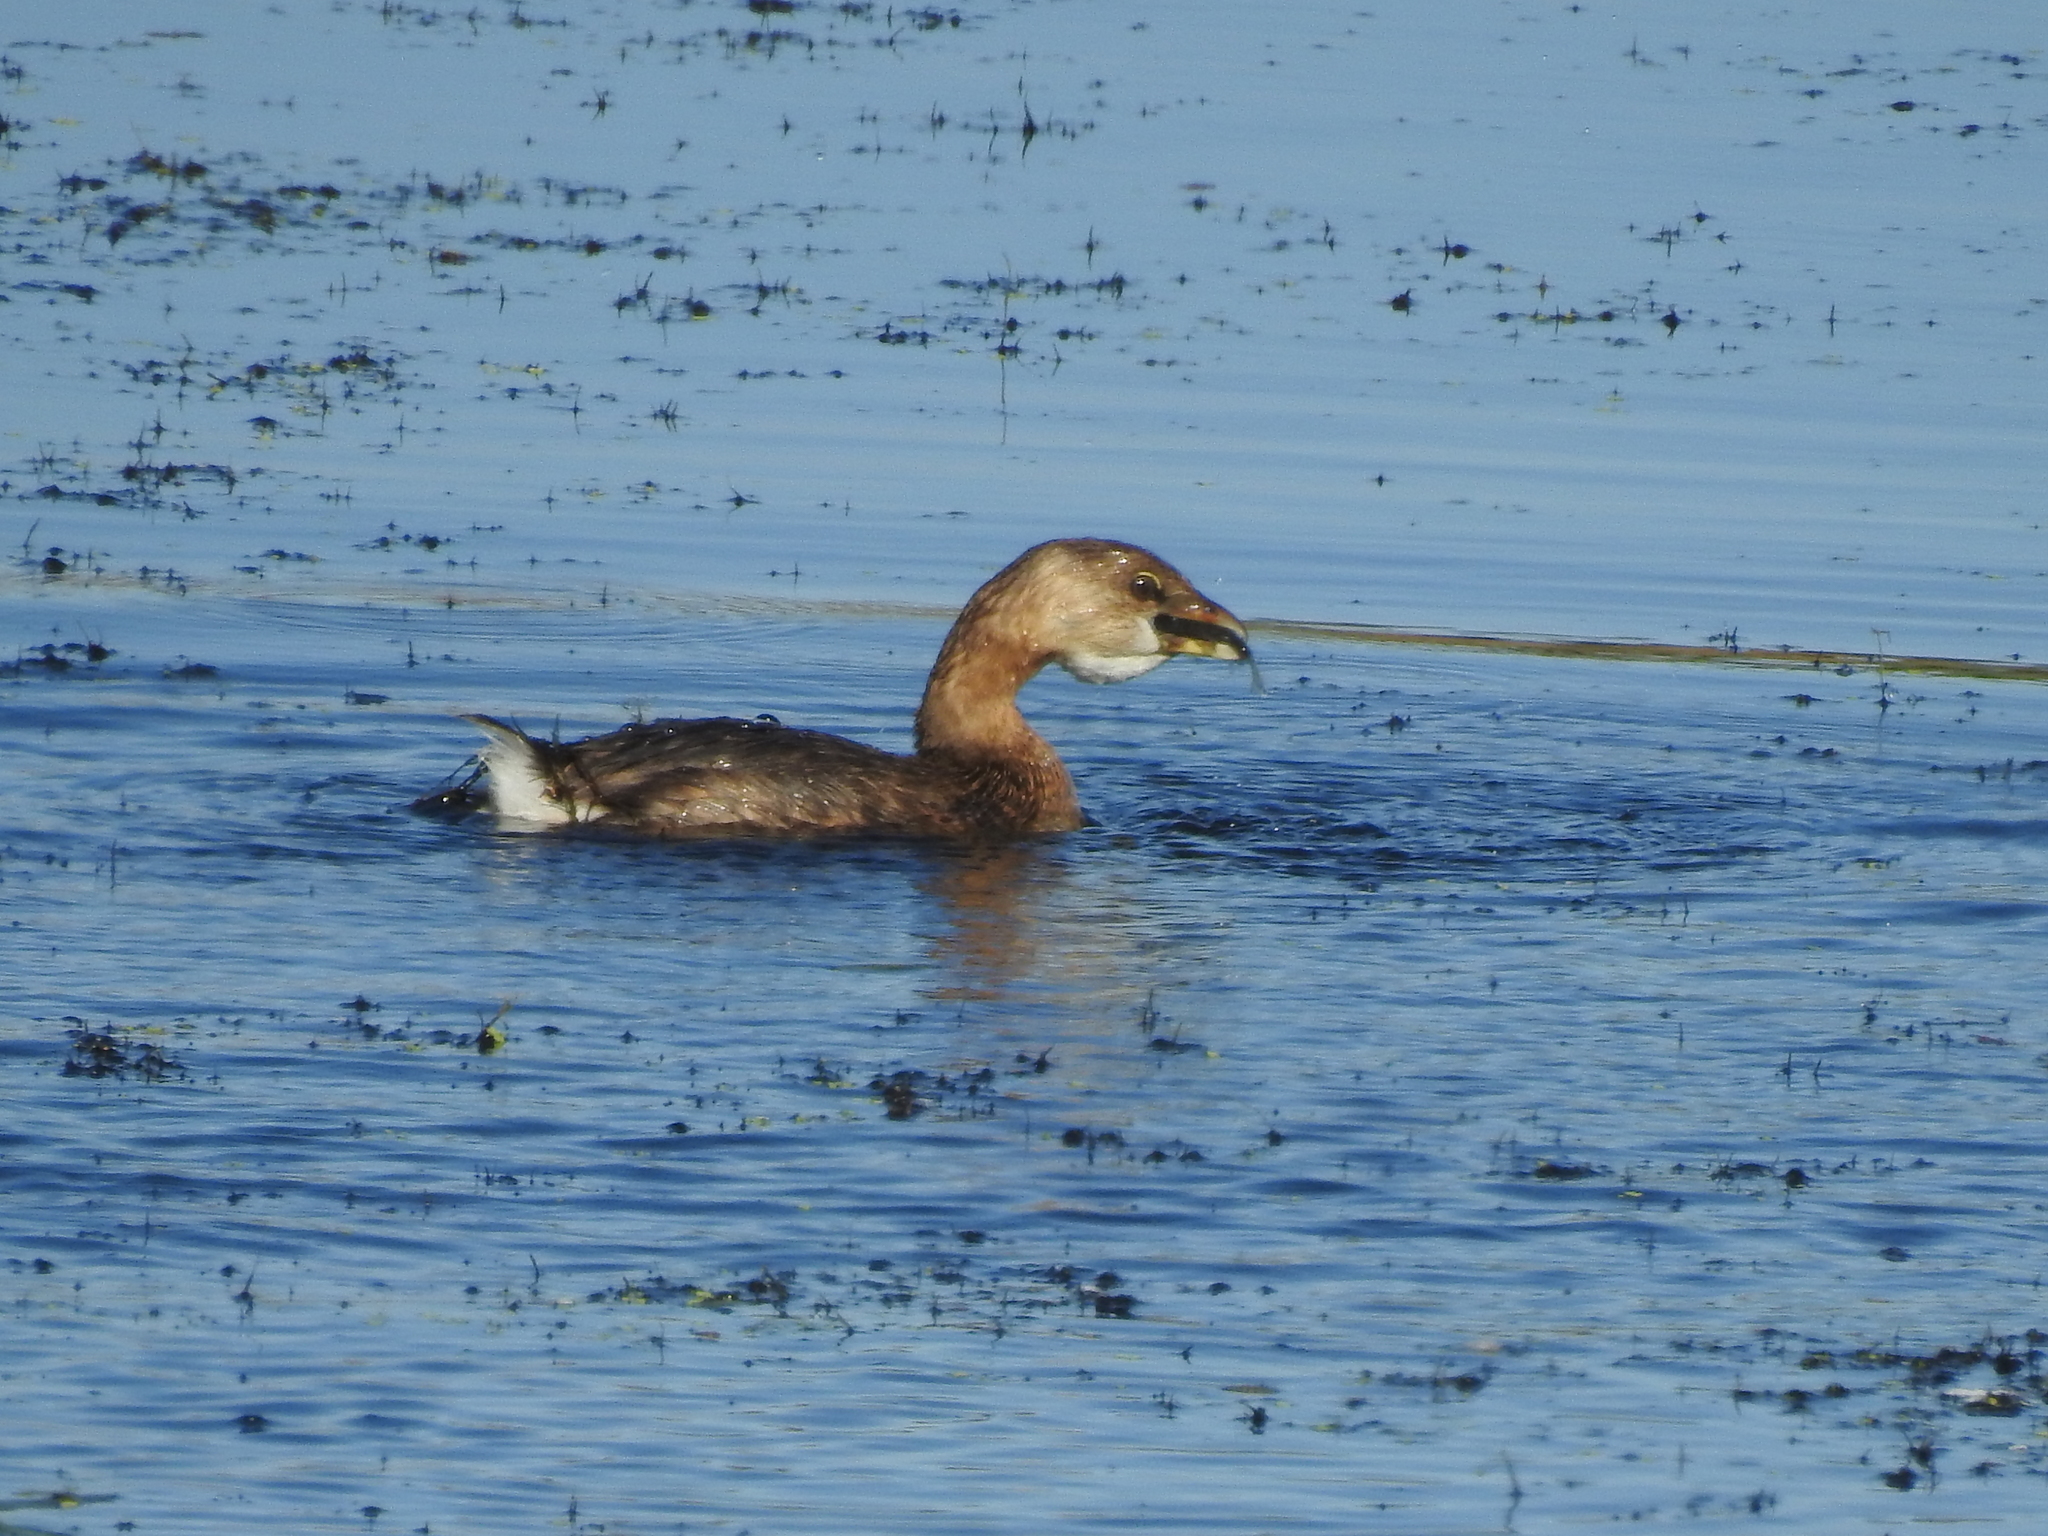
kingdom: Animalia
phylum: Chordata
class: Aves
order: Podicipediformes
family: Podicipedidae
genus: Podilymbus
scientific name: Podilymbus podiceps
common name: Pied-billed grebe
